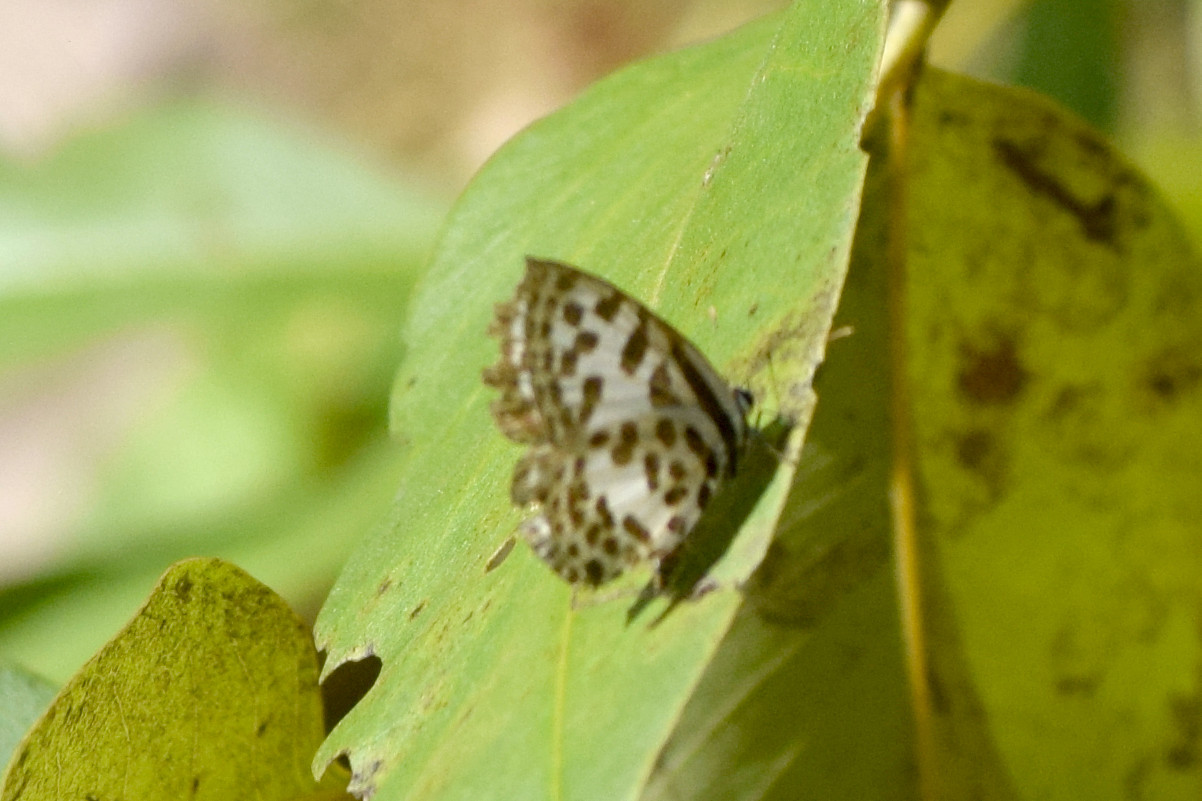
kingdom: Animalia
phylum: Arthropoda
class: Insecta
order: Lepidoptera
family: Lycaenidae
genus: Castalius
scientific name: Castalius rosimon
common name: Common pierrot
